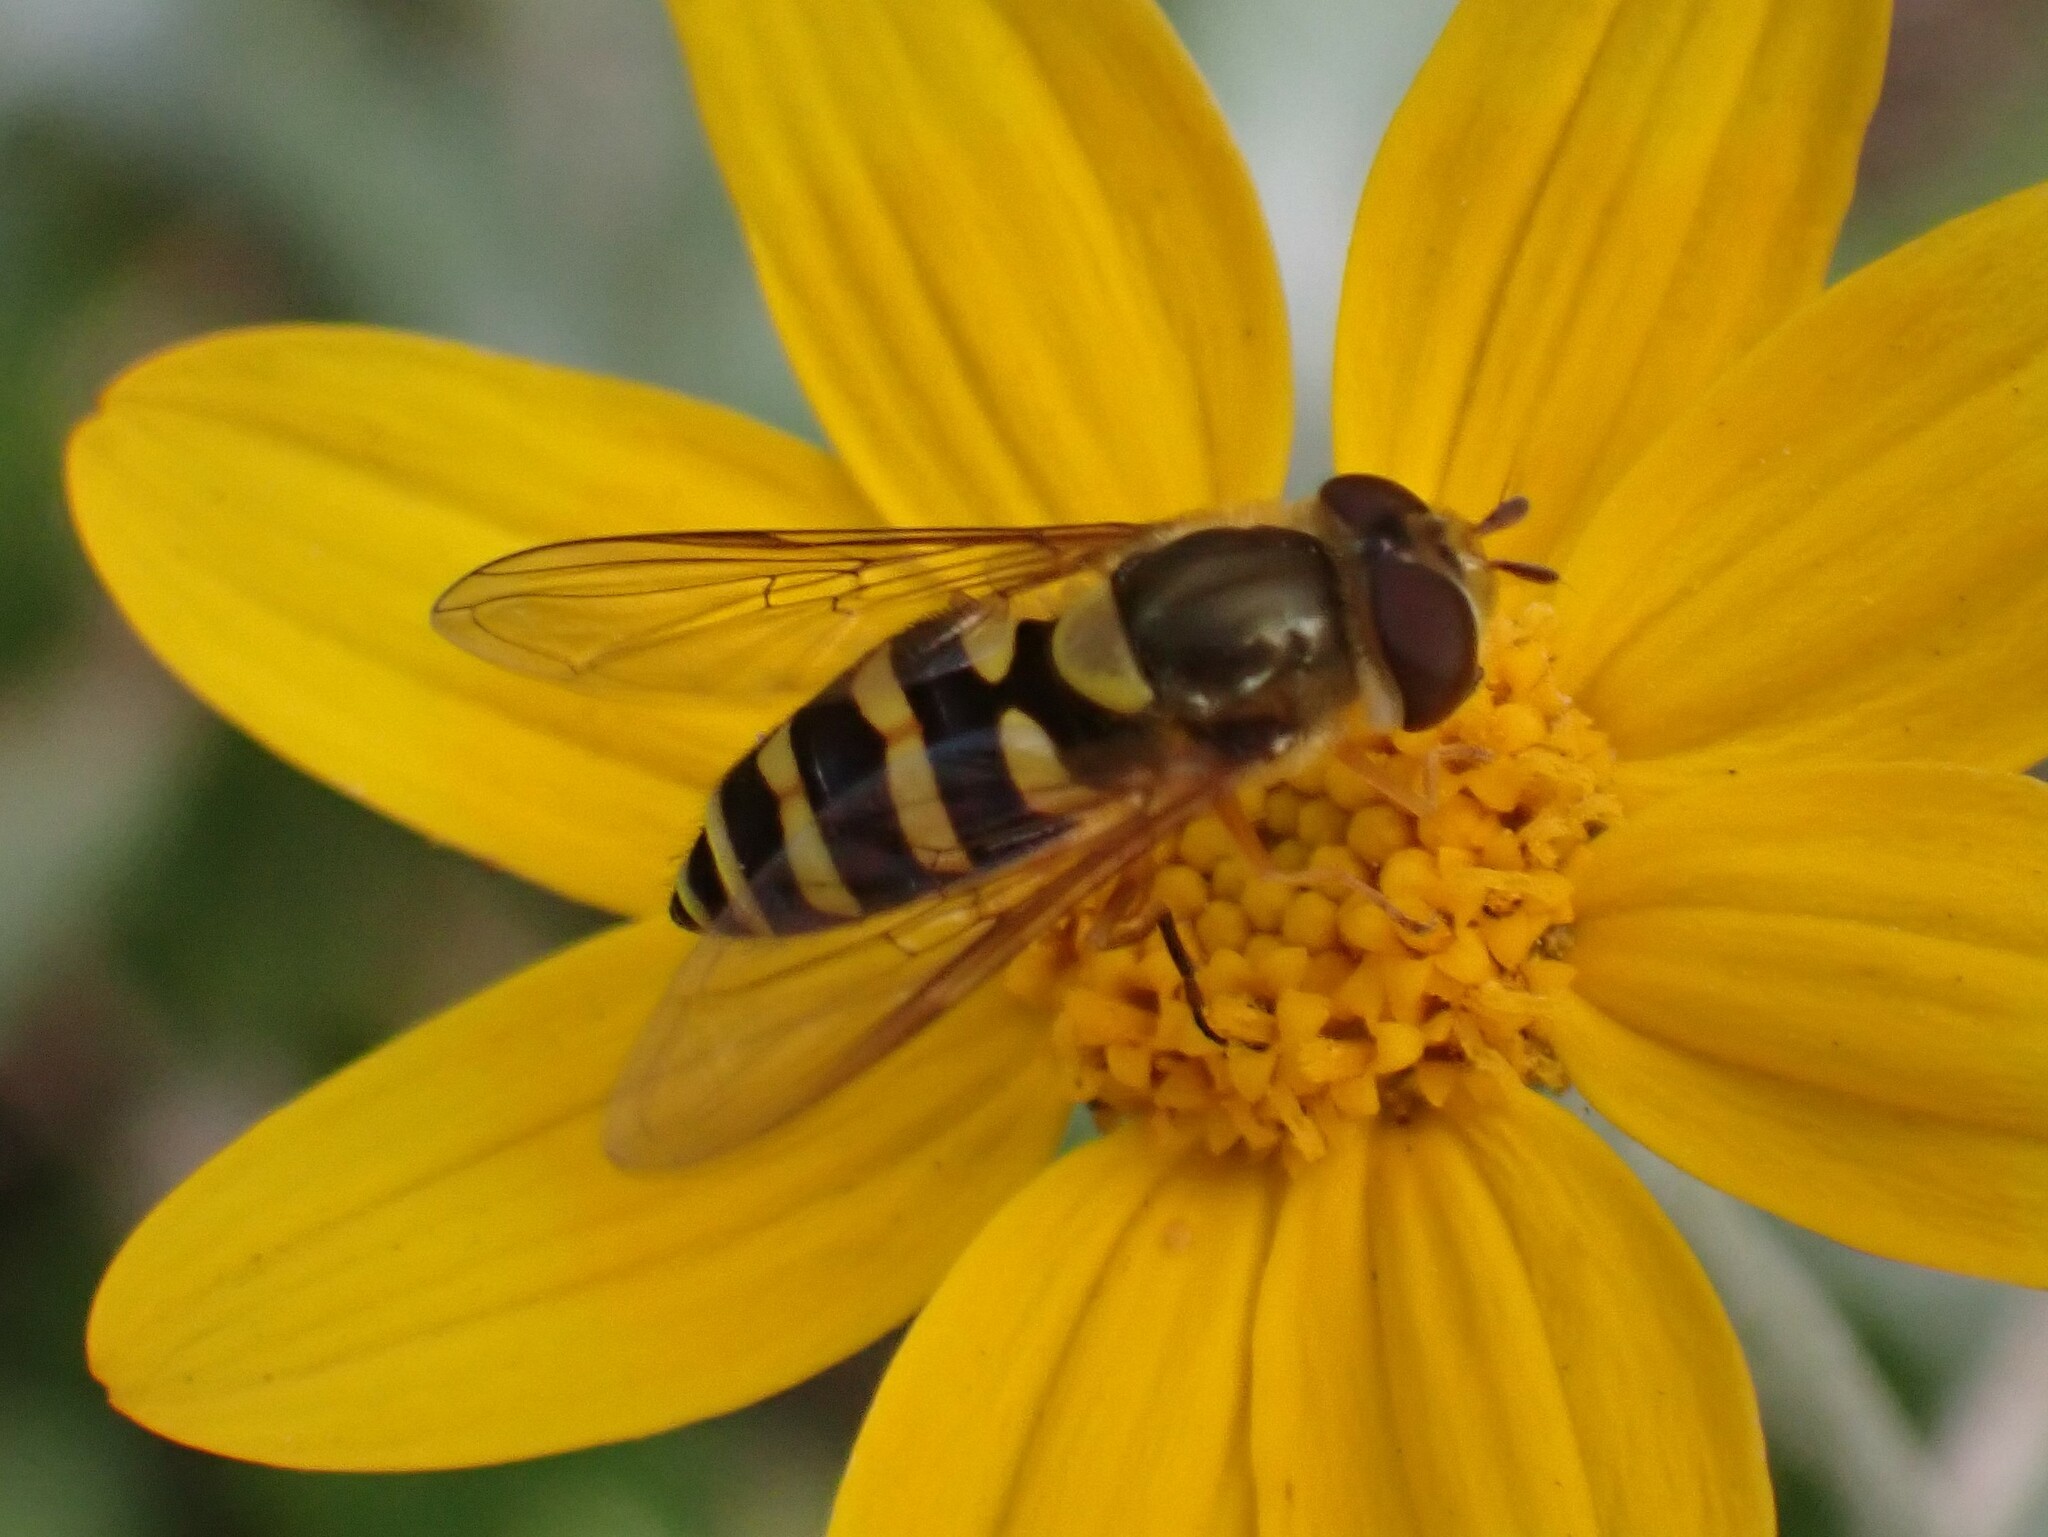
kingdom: Animalia
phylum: Arthropoda
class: Insecta
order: Diptera
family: Syrphidae
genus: Syrphus
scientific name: Syrphus opinator
